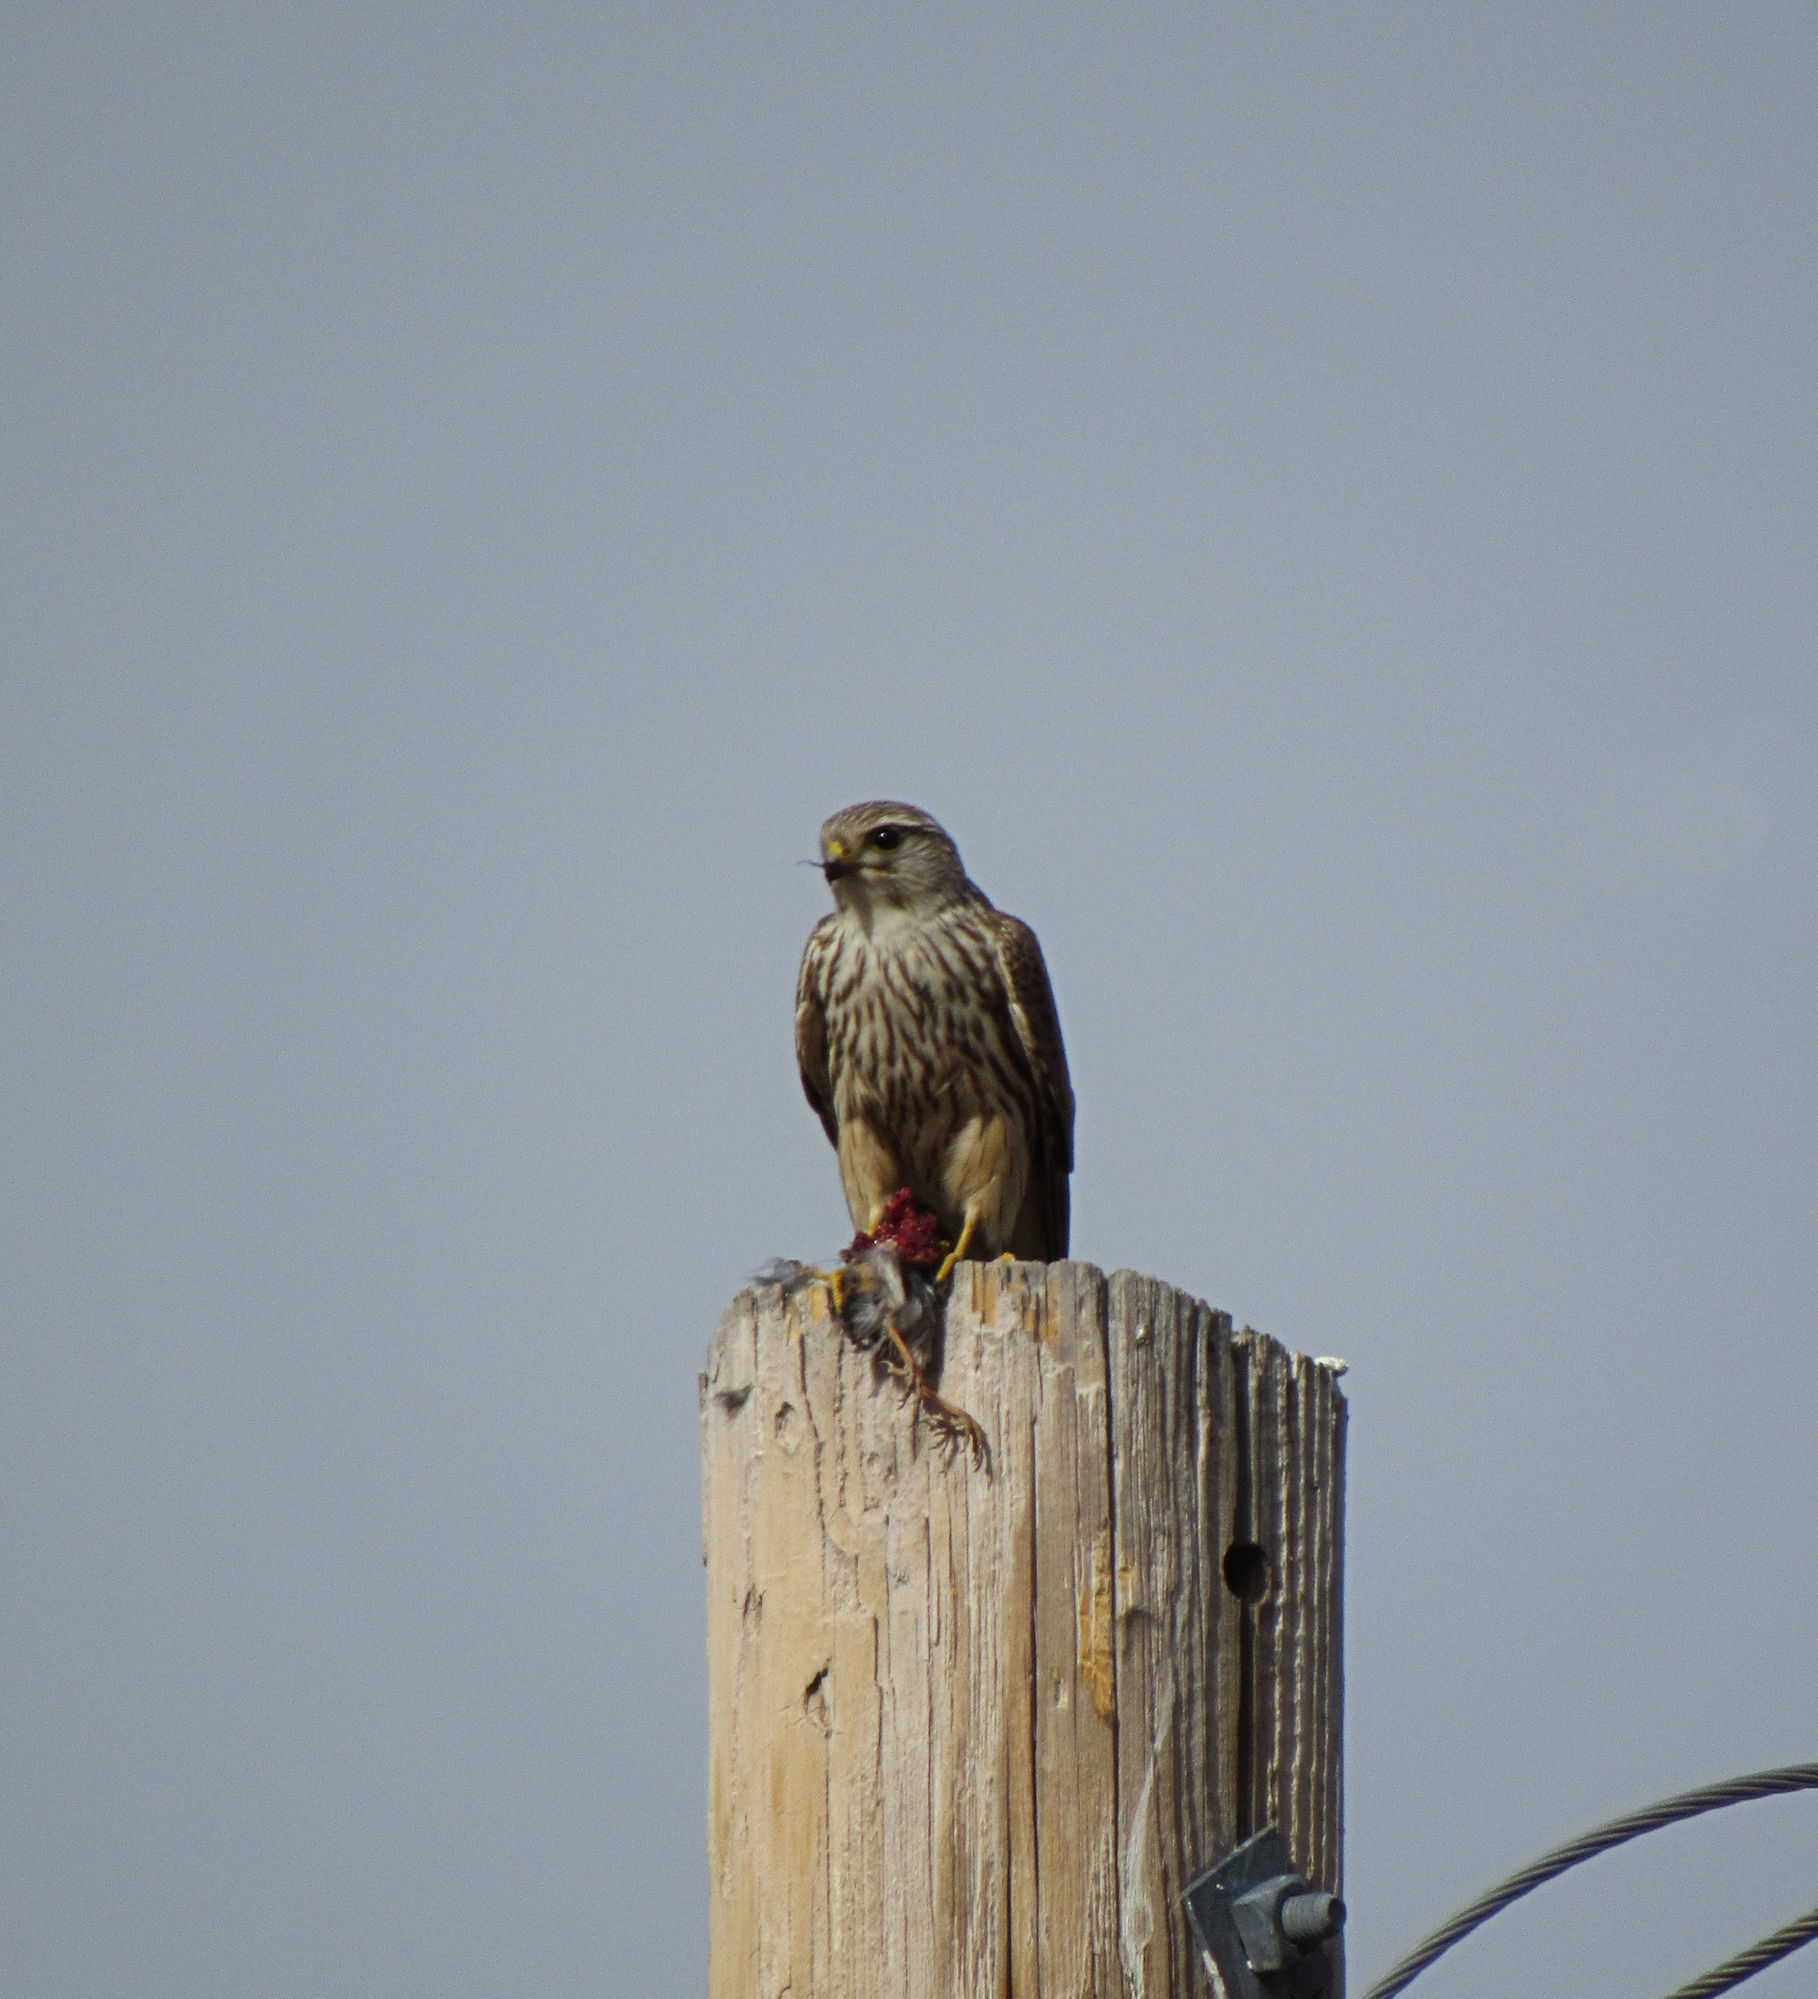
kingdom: Animalia
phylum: Chordata
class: Aves
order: Falconiformes
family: Falconidae
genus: Falco
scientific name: Falco columbarius
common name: Merlin
